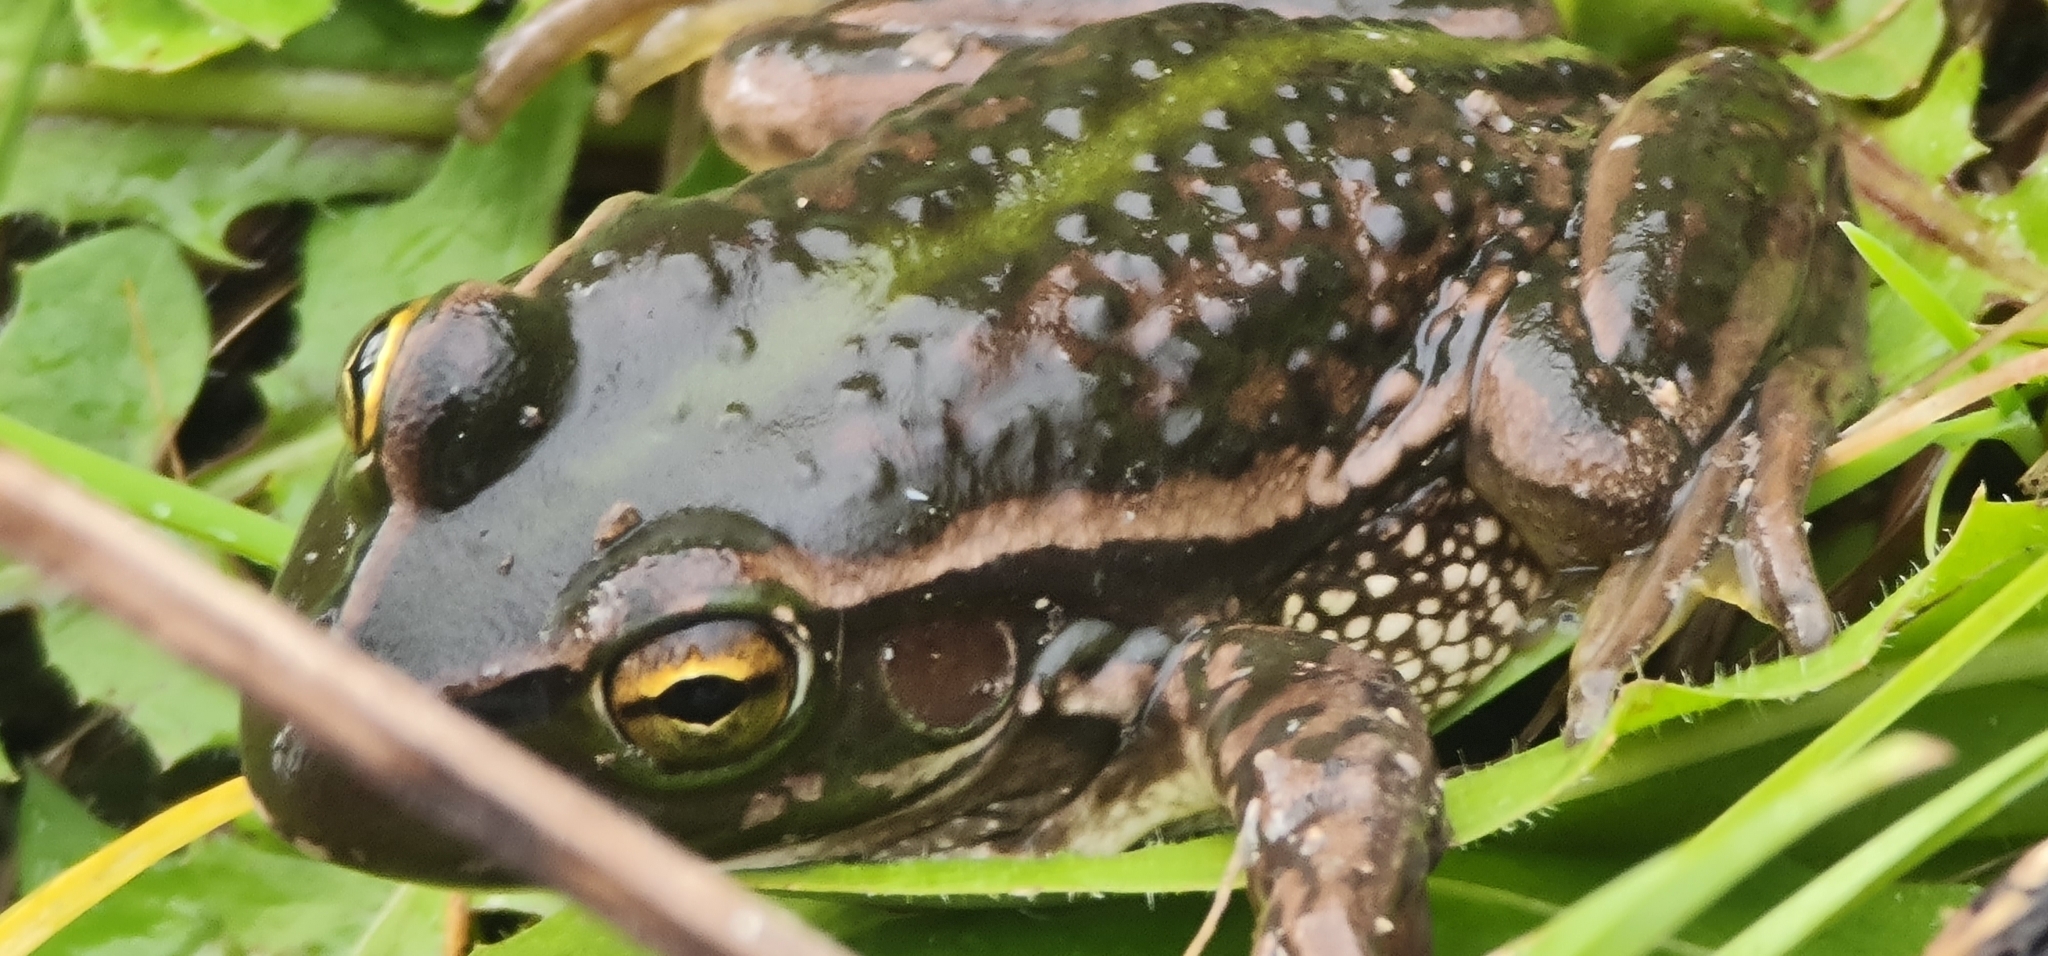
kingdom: Animalia
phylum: Chordata
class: Amphibia
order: Anura
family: Pelodryadidae
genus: Ranoidea
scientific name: Ranoidea raniformis
